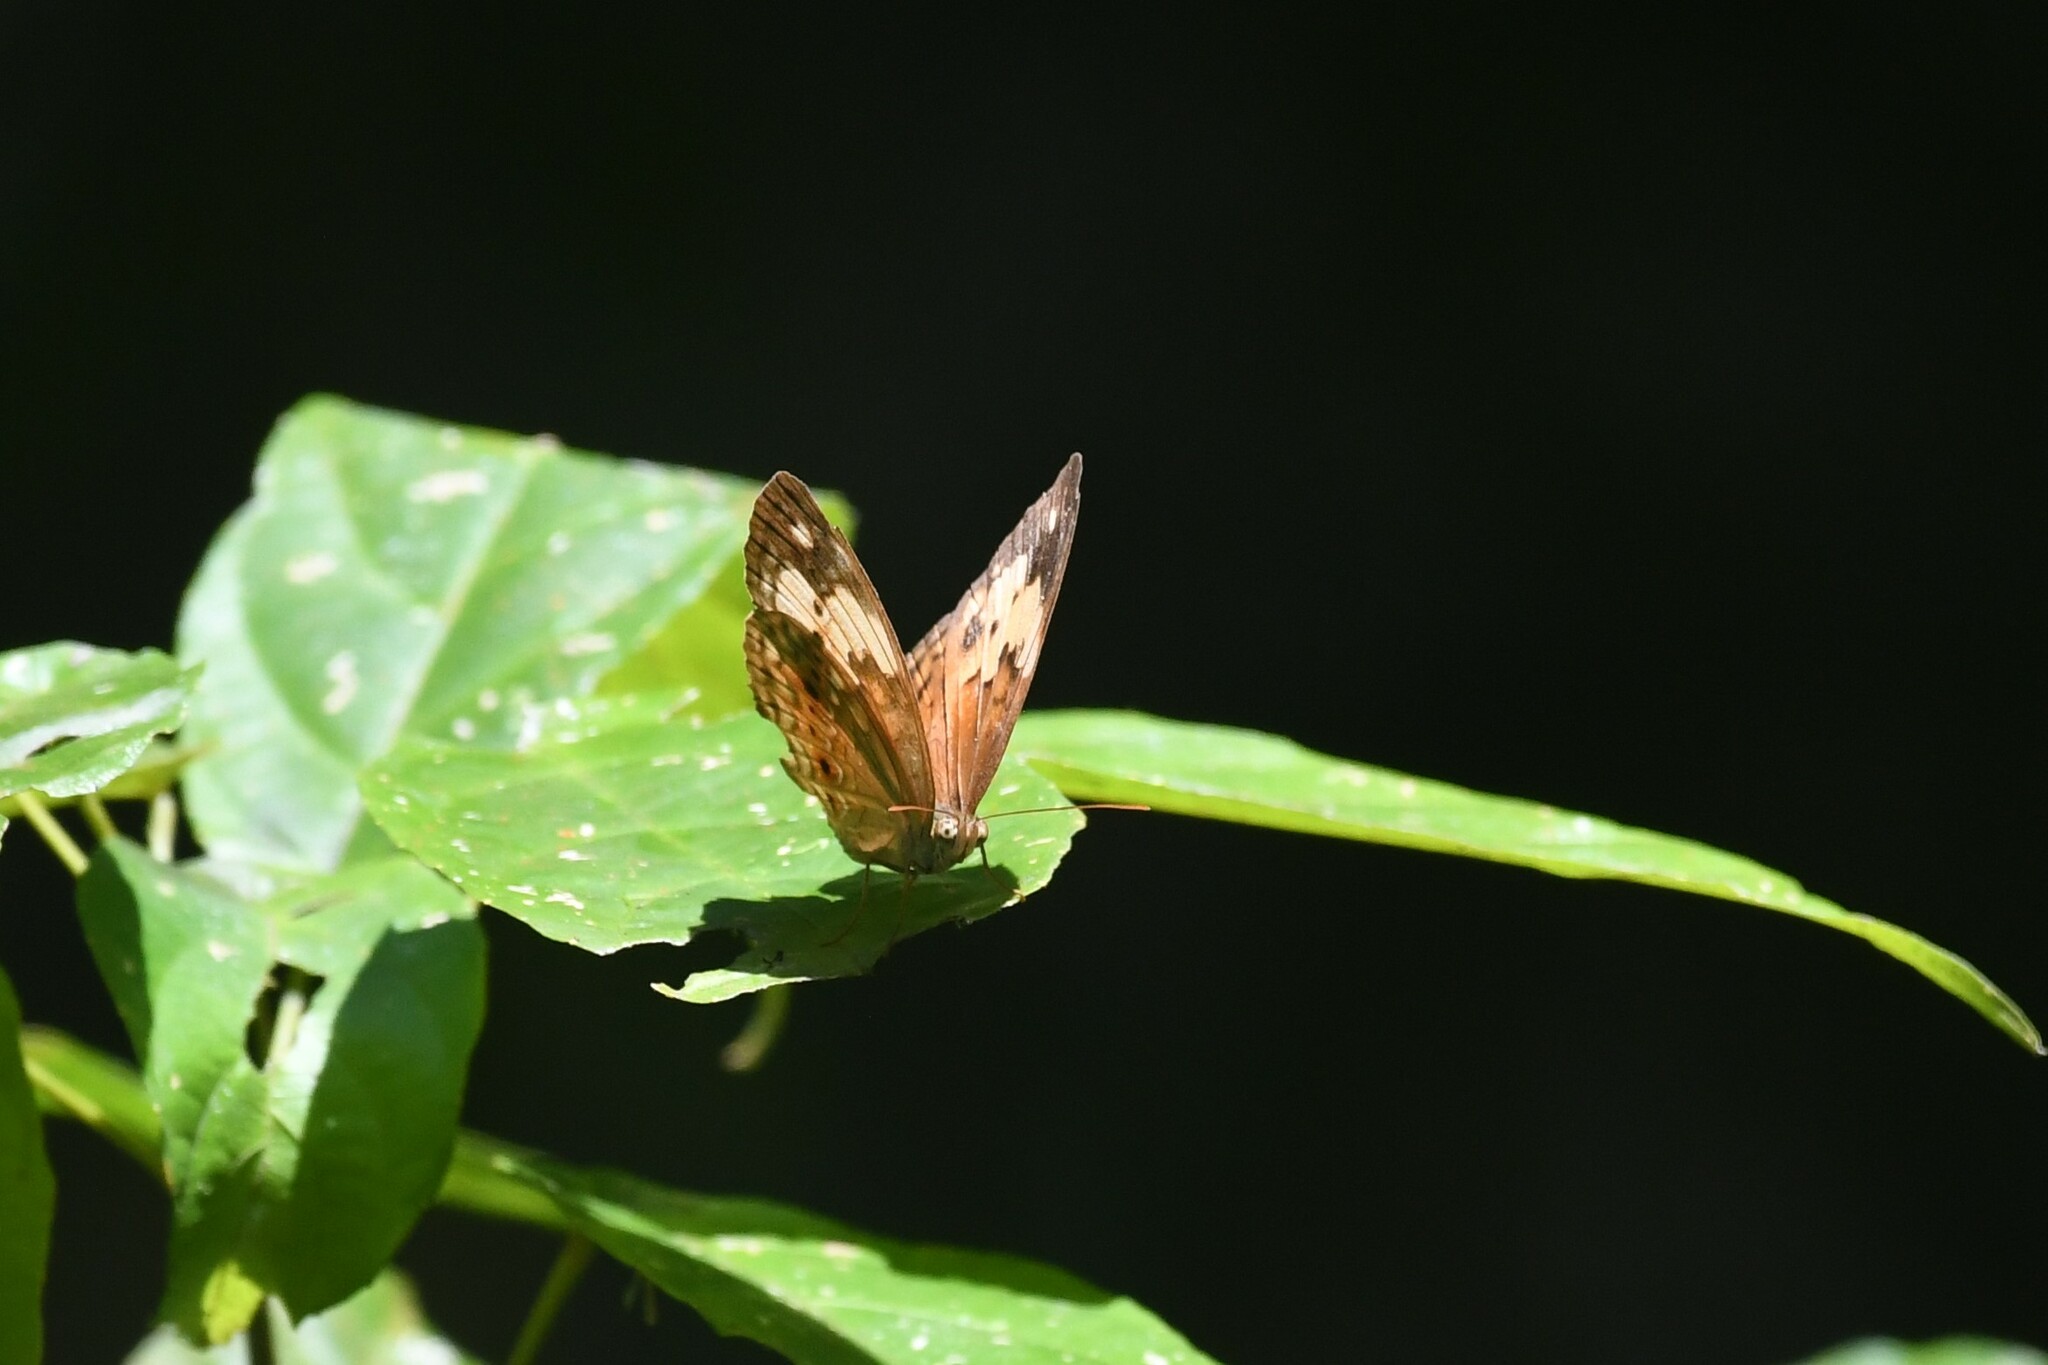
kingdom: Animalia
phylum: Arthropoda
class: Insecta
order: Lepidoptera
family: Nymphalidae
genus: Cupha
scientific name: Cupha erymanthis
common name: Rustic
